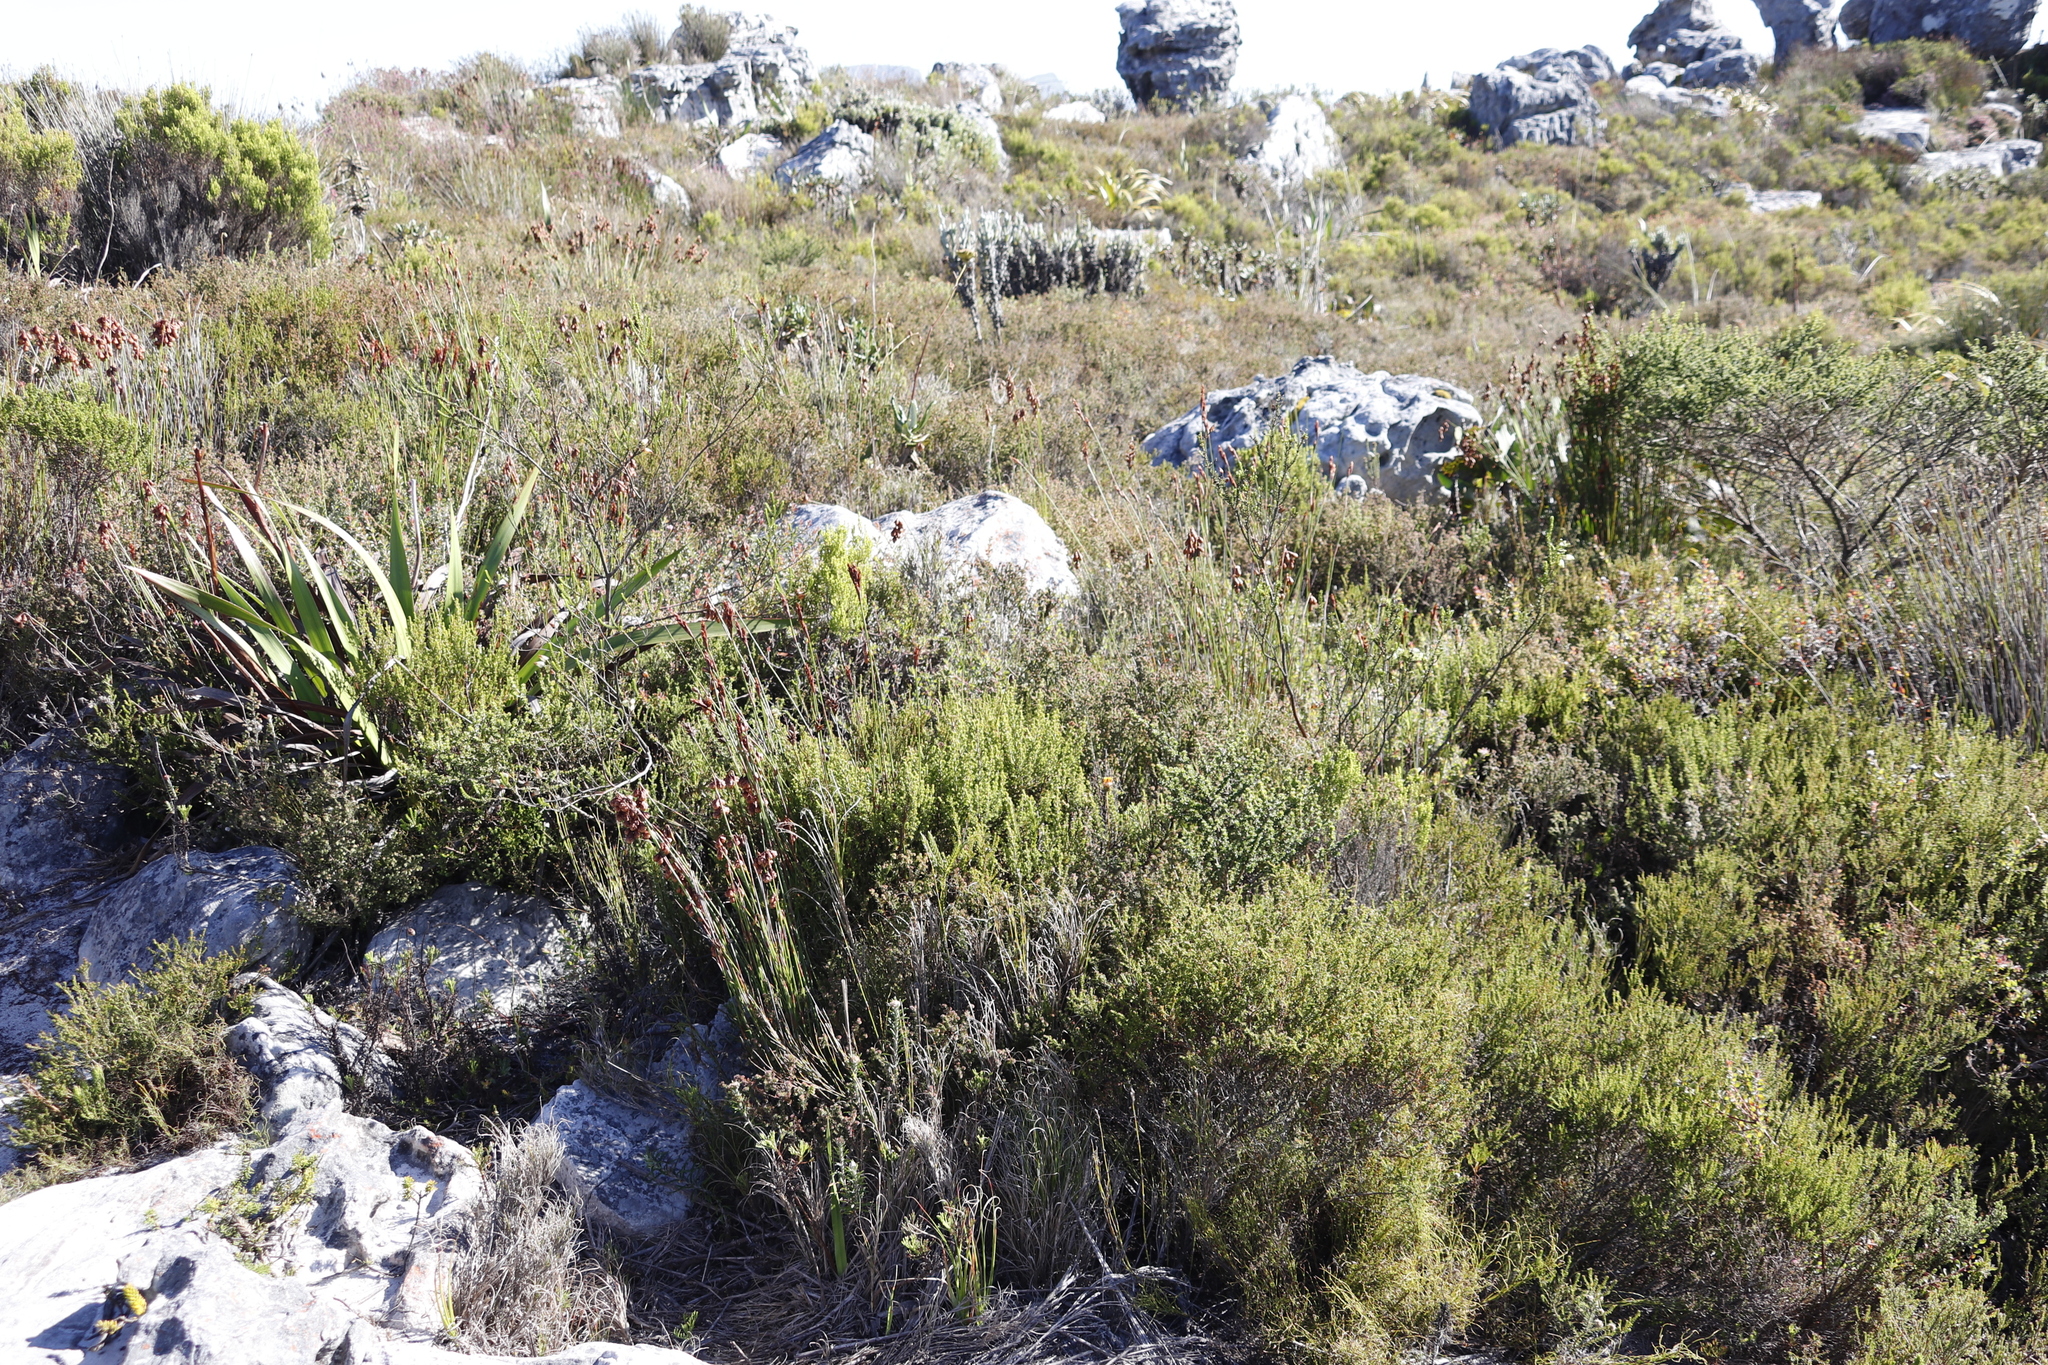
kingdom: Plantae
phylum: Tracheophyta
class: Magnoliopsida
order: Ericales
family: Ericaceae
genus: Erica
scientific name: Erica urna-viridis
